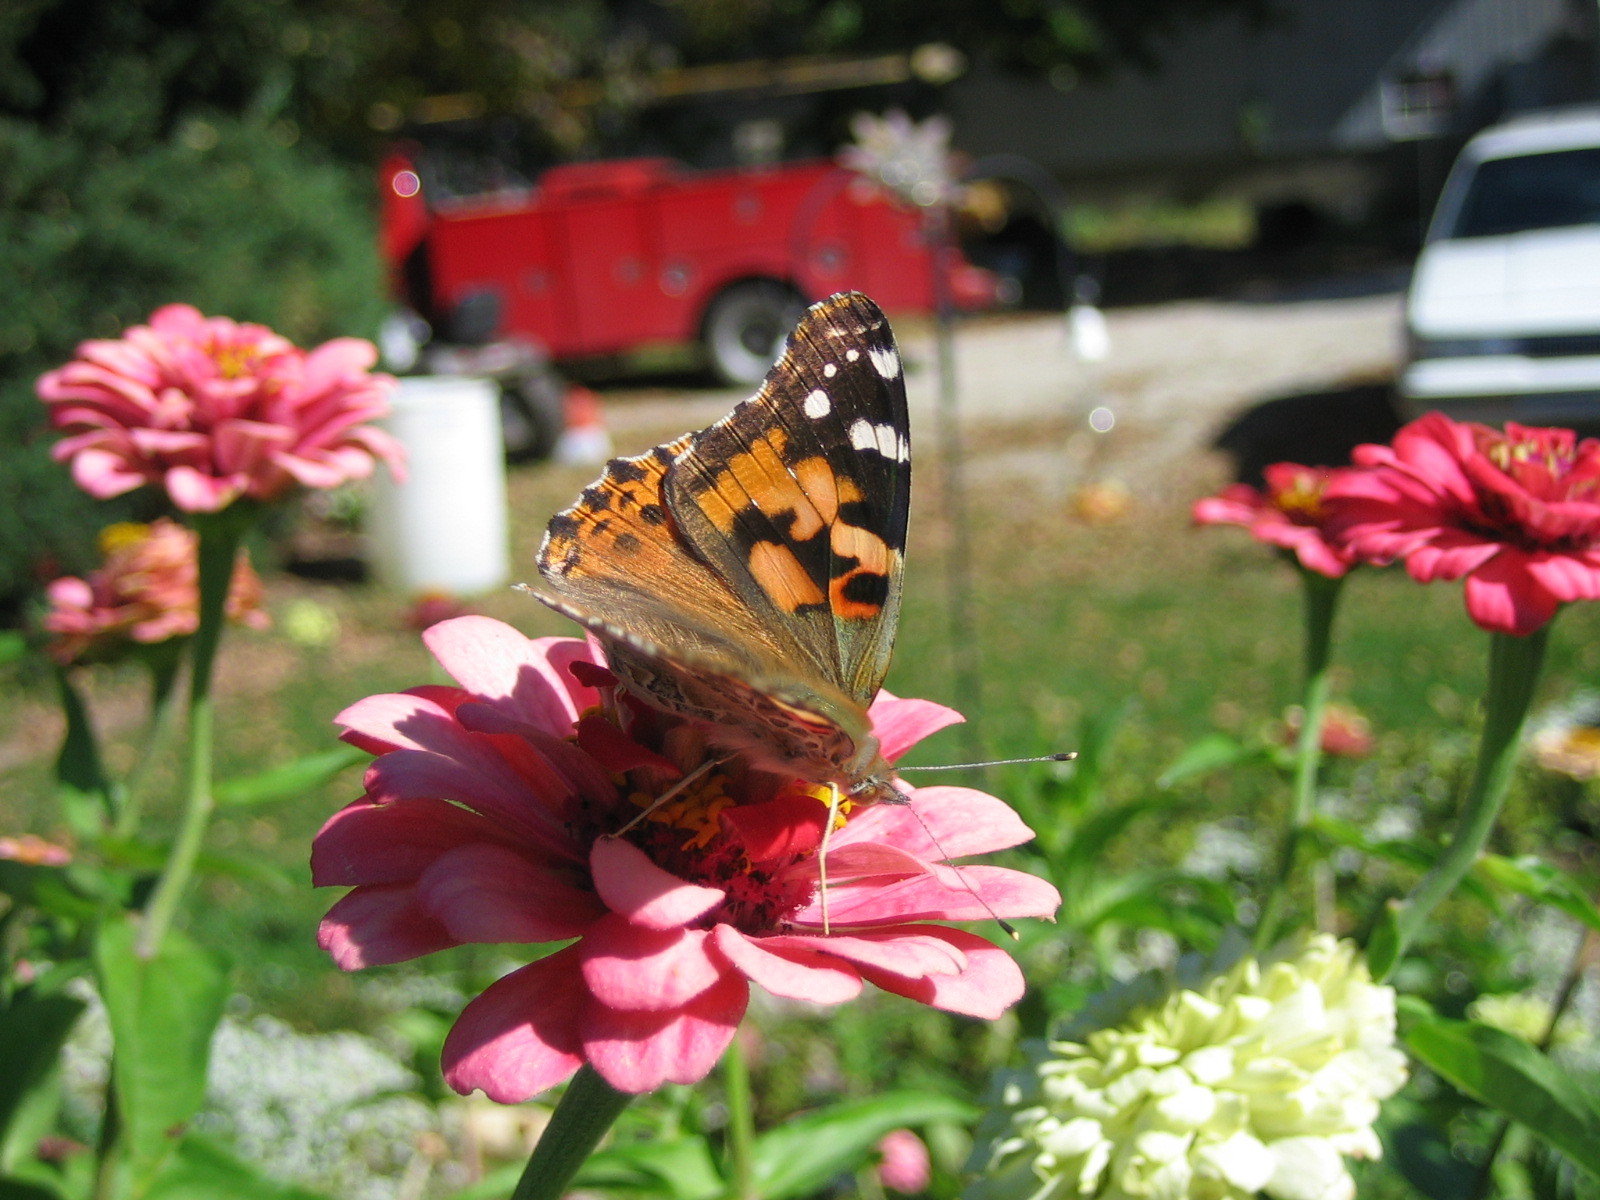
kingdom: Animalia
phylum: Arthropoda
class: Insecta
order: Lepidoptera
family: Nymphalidae
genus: Vanessa
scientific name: Vanessa cardui
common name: Painted lady
